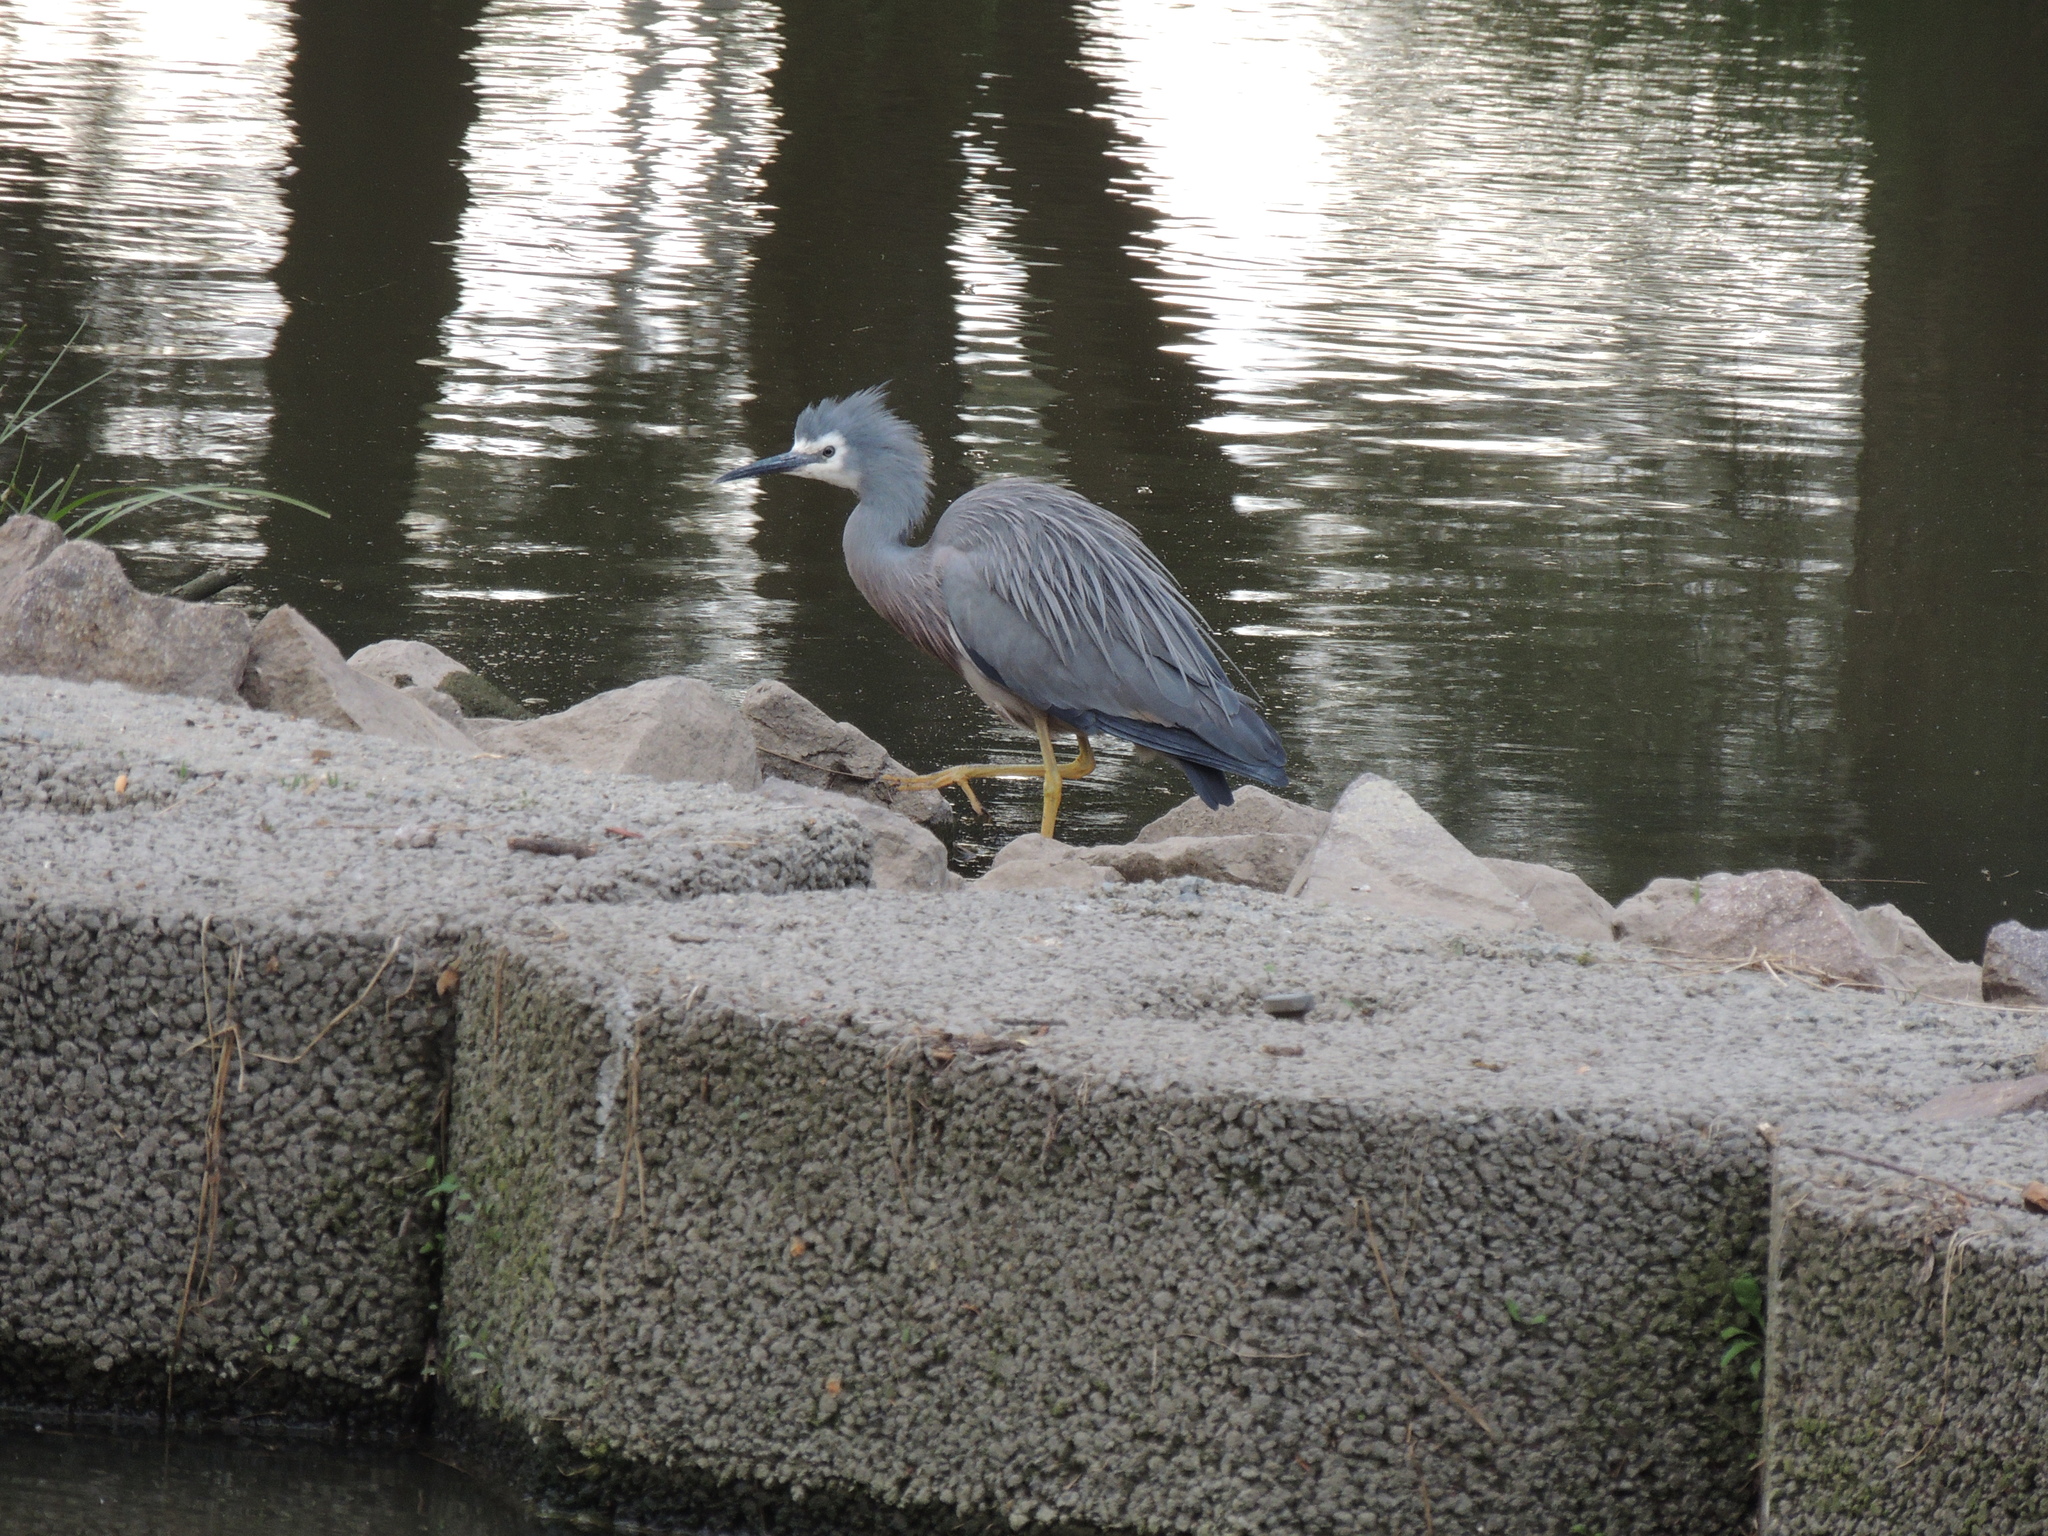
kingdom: Animalia
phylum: Chordata
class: Aves
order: Pelecaniformes
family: Ardeidae
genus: Egretta
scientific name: Egretta novaehollandiae
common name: White-faced heron
